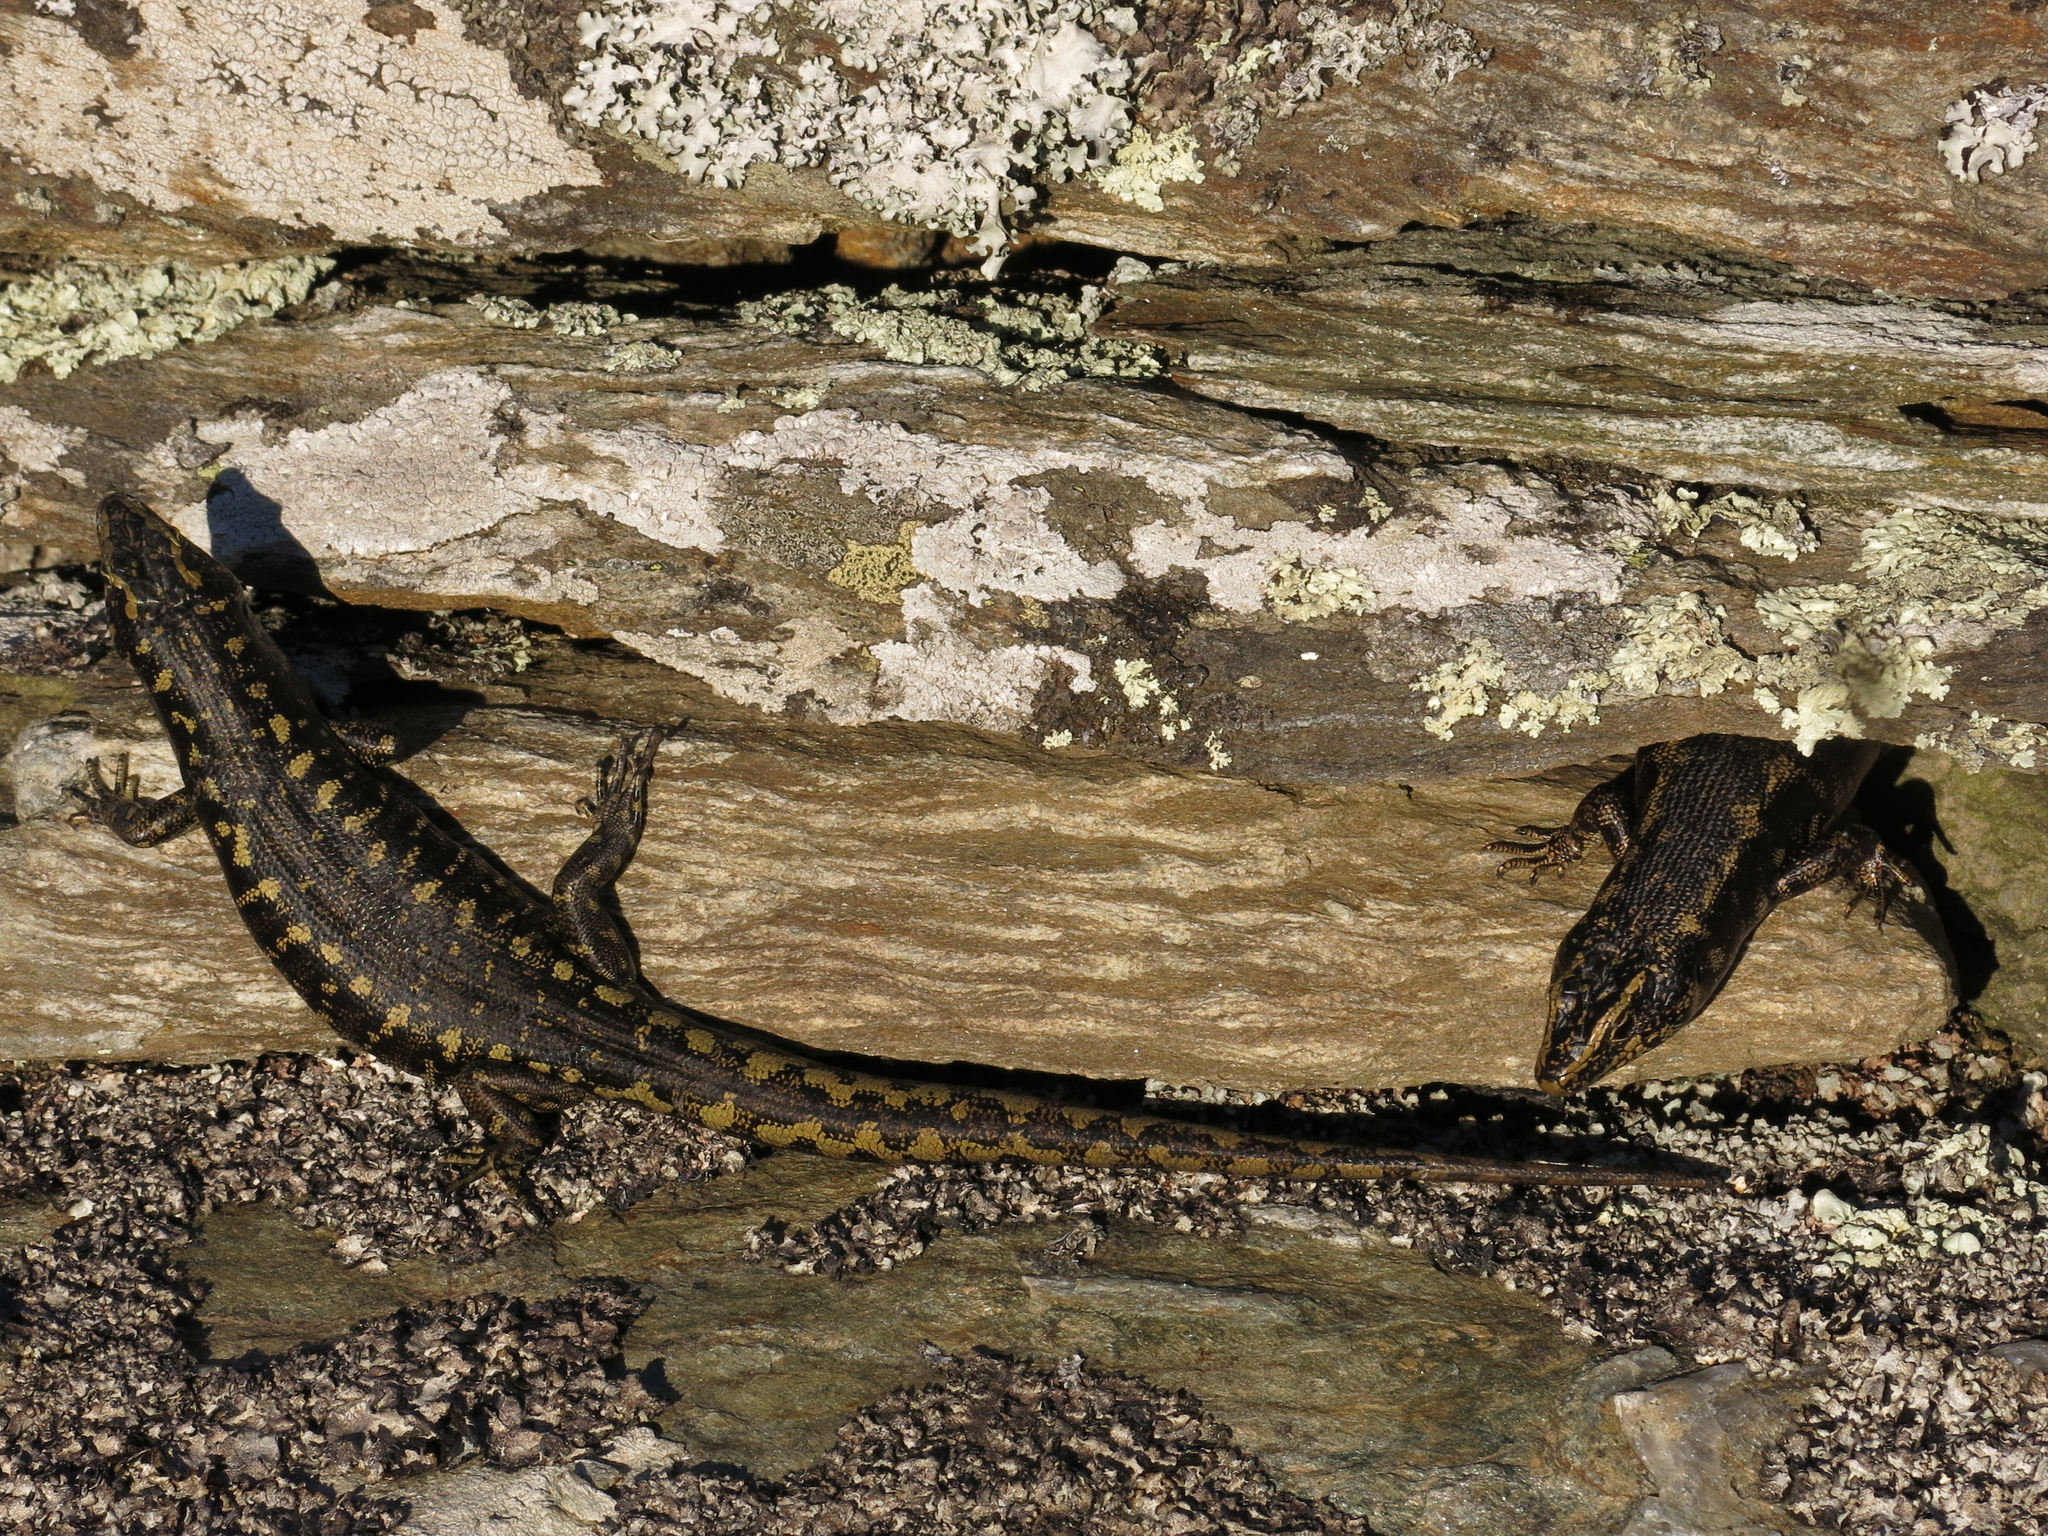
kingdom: Animalia
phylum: Chordata
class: Squamata
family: Scincidae
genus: Oligosoma
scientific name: Oligosoma otagense
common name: Otago skink
